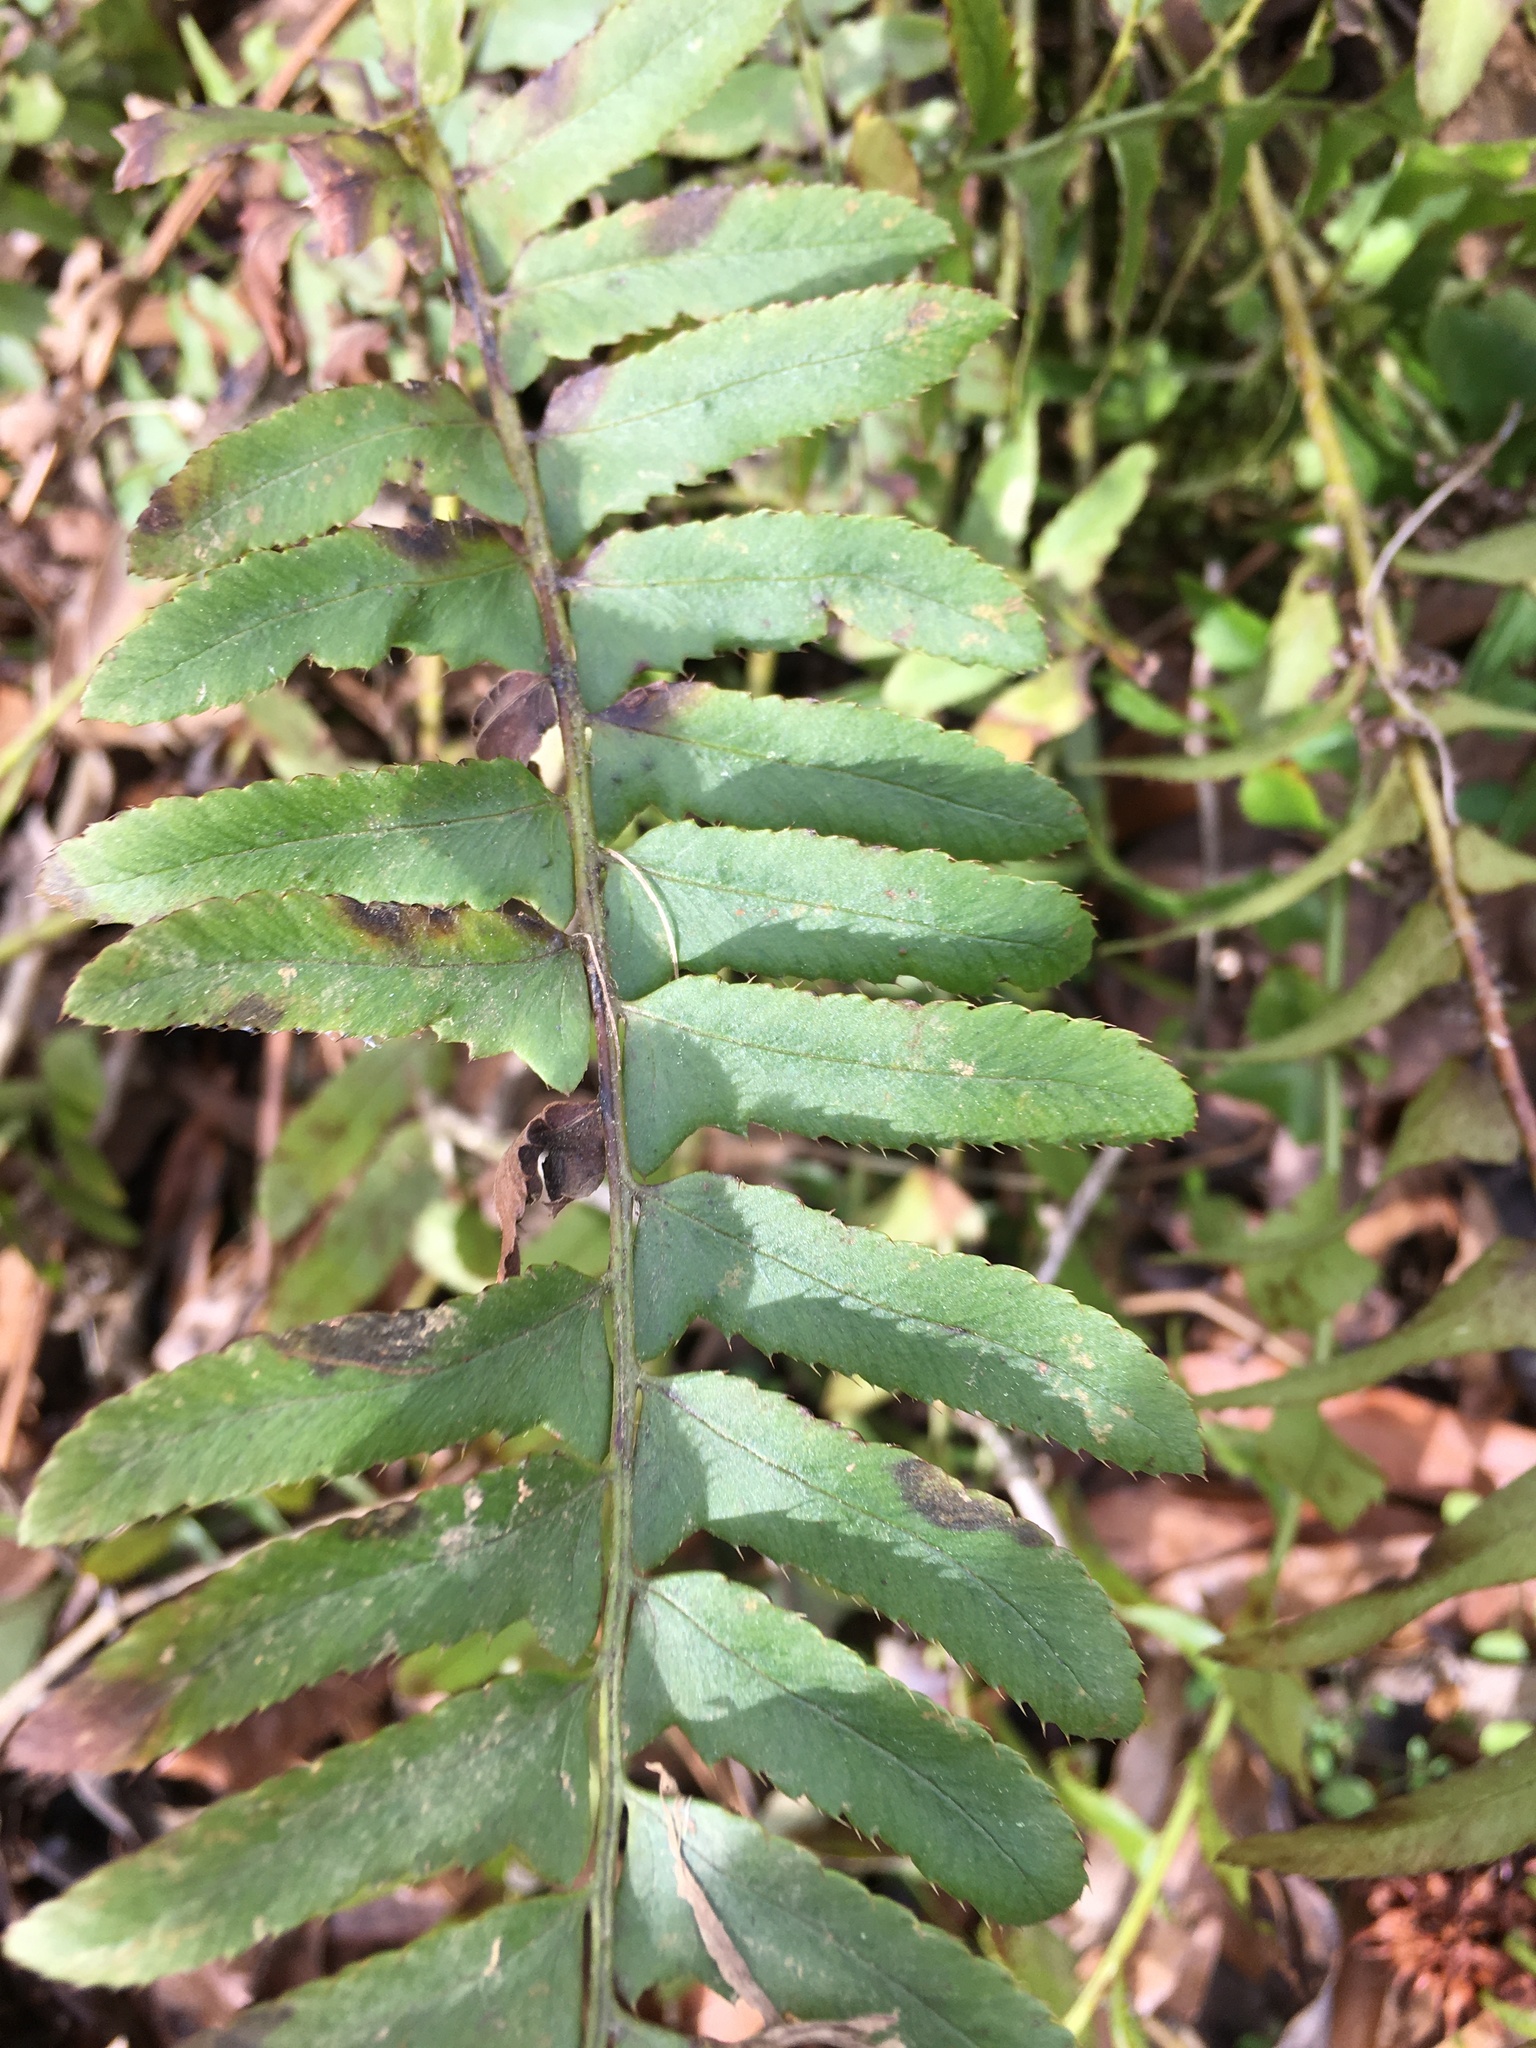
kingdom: Plantae
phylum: Tracheophyta
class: Polypodiopsida
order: Polypodiales
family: Dryopteridaceae
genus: Polystichum
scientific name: Polystichum acrostichoides
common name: Christmas fern
